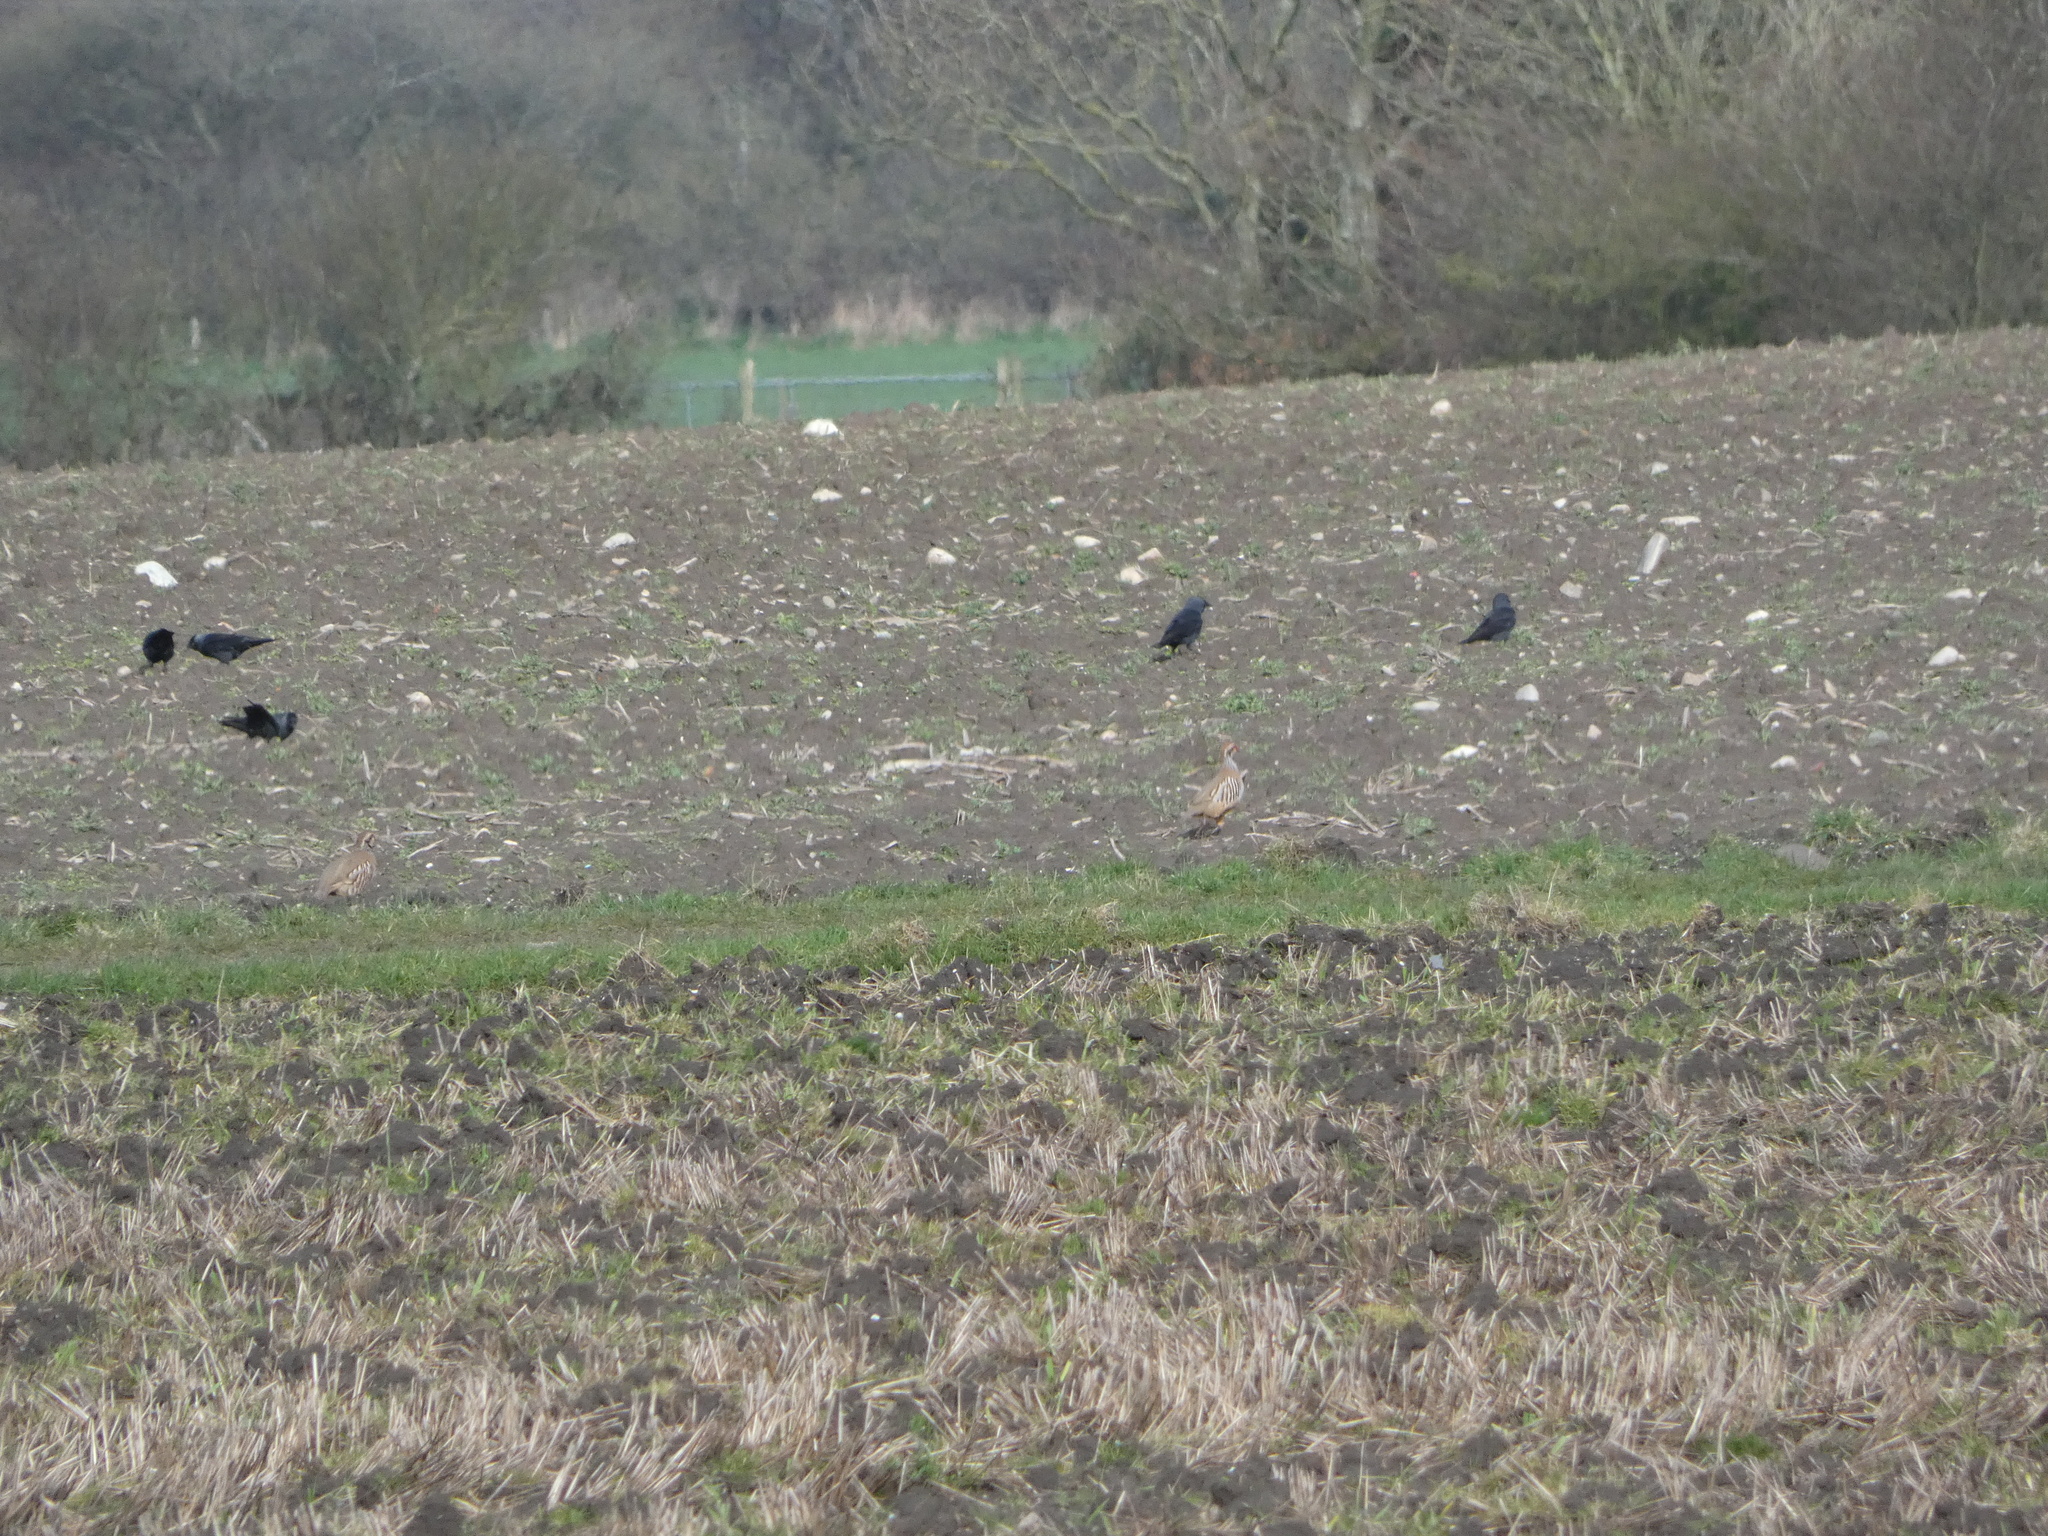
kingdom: Animalia
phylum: Chordata
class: Aves
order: Galliformes
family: Phasianidae
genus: Alectoris
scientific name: Alectoris rufa
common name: Red-legged partridge
